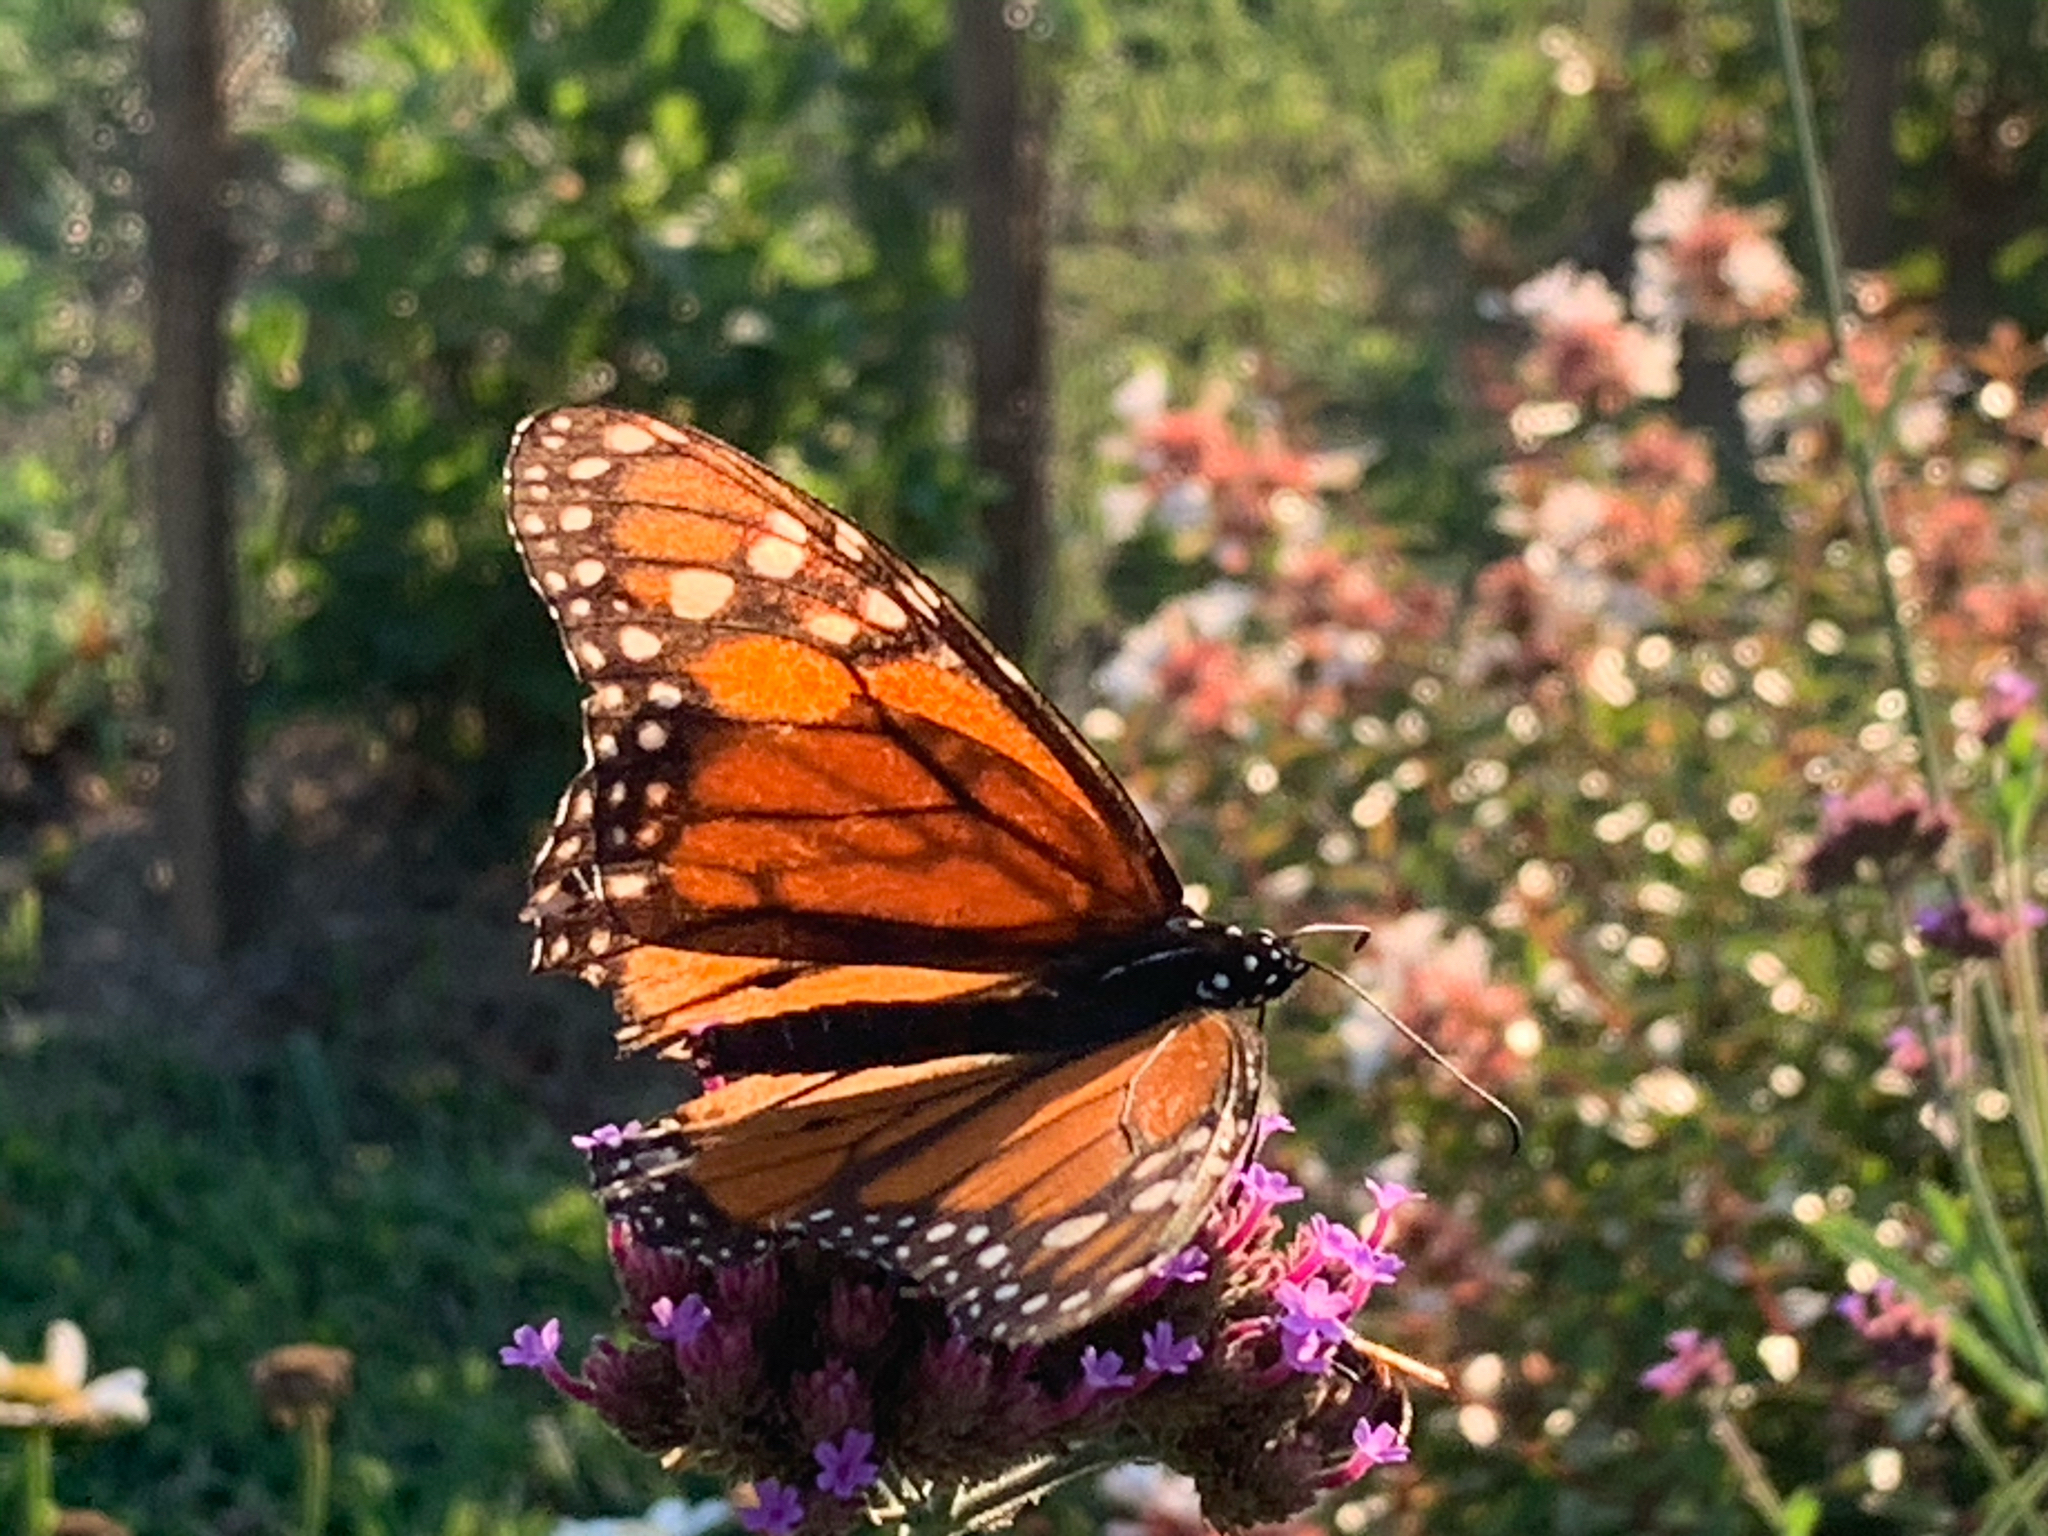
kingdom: Animalia
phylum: Arthropoda
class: Insecta
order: Lepidoptera
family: Nymphalidae
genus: Danaus
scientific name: Danaus plexippus
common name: Monarch
